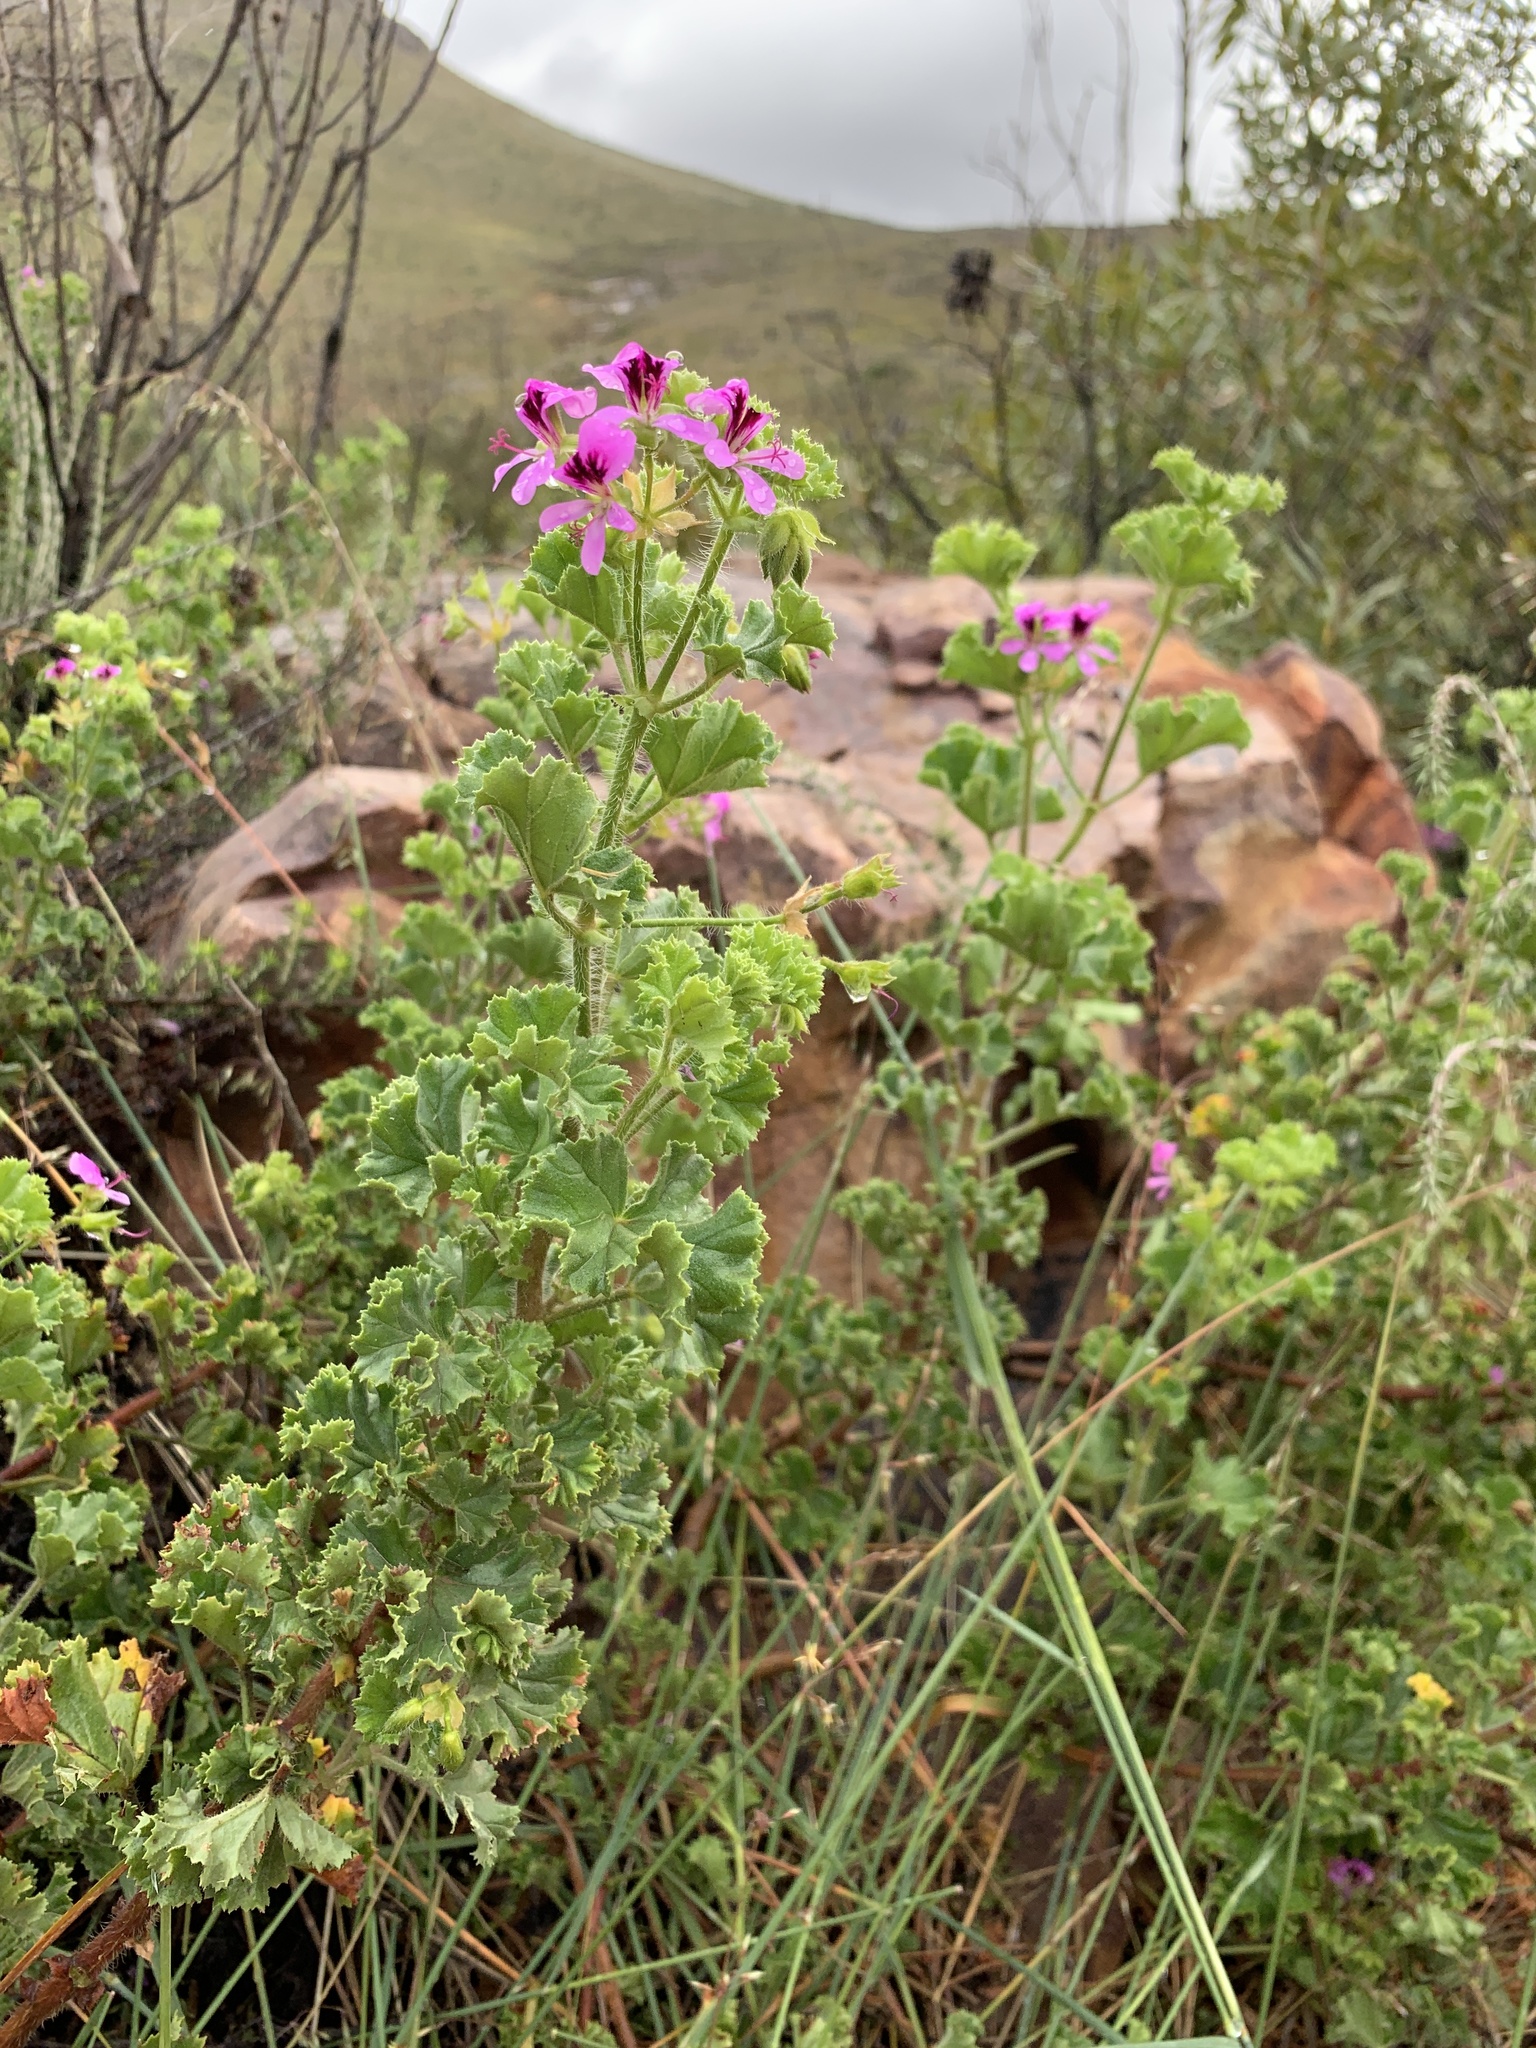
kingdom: Plantae
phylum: Tracheophyta
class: Magnoliopsida
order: Geraniales
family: Geraniaceae
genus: Pelargonium
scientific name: Pelargonium englerianum
